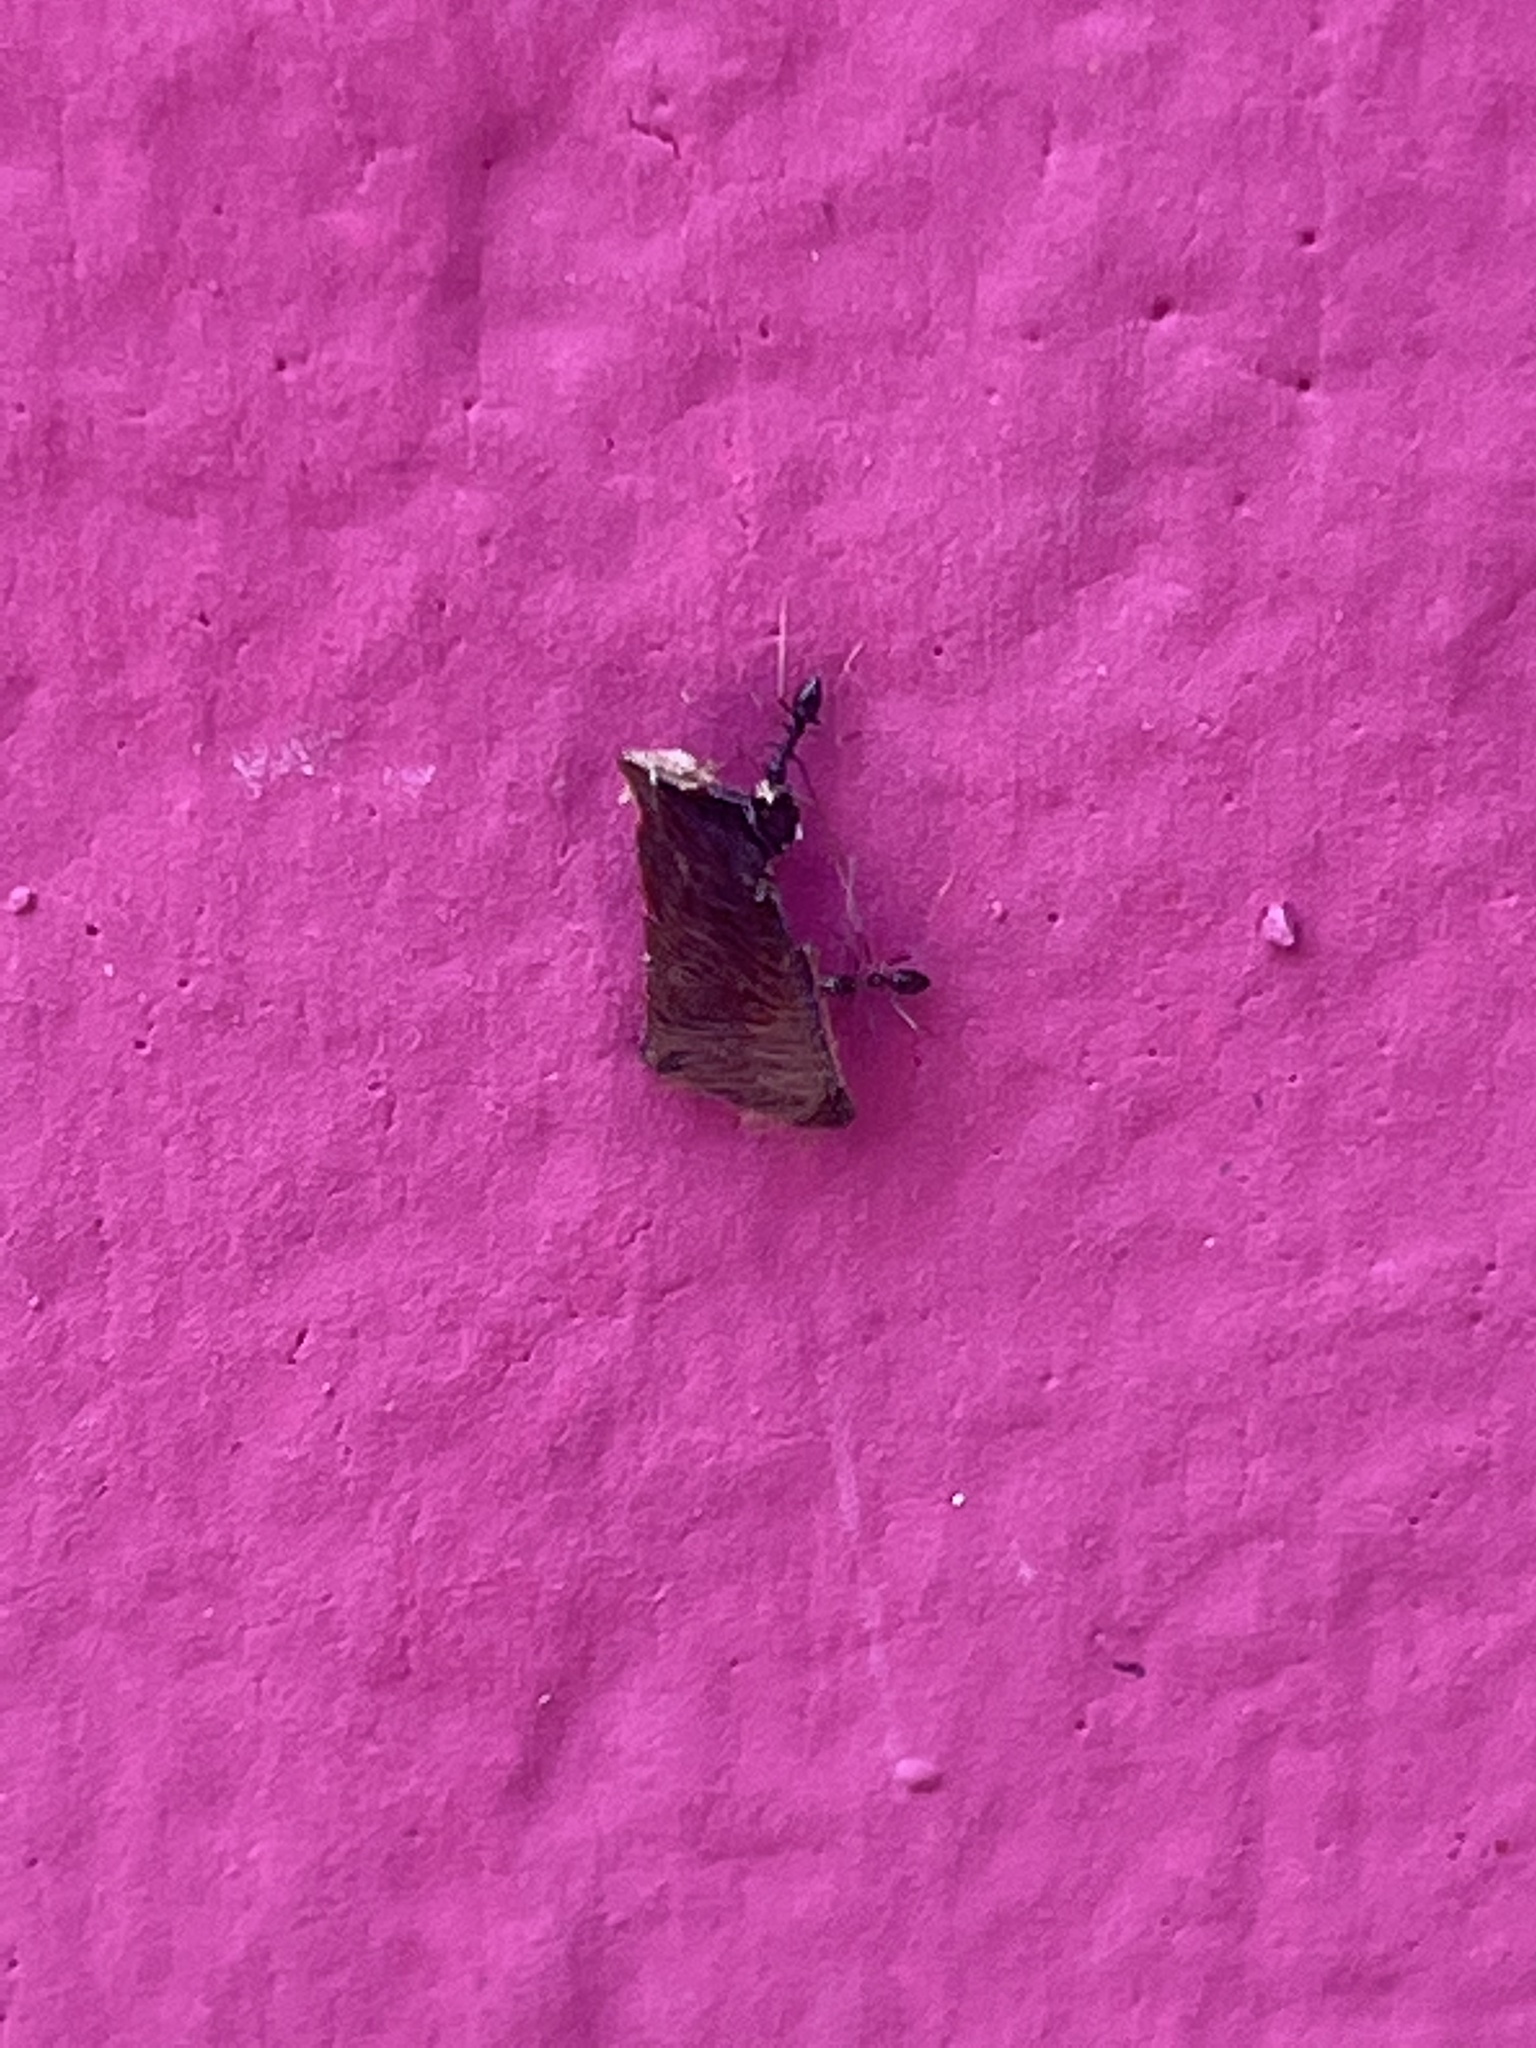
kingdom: Animalia
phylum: Arthropoda
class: Insecta
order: Hymenoptera
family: Formicidae
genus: Paratrechina
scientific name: Paratrechina longicornis
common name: Longhorned crazy ant
